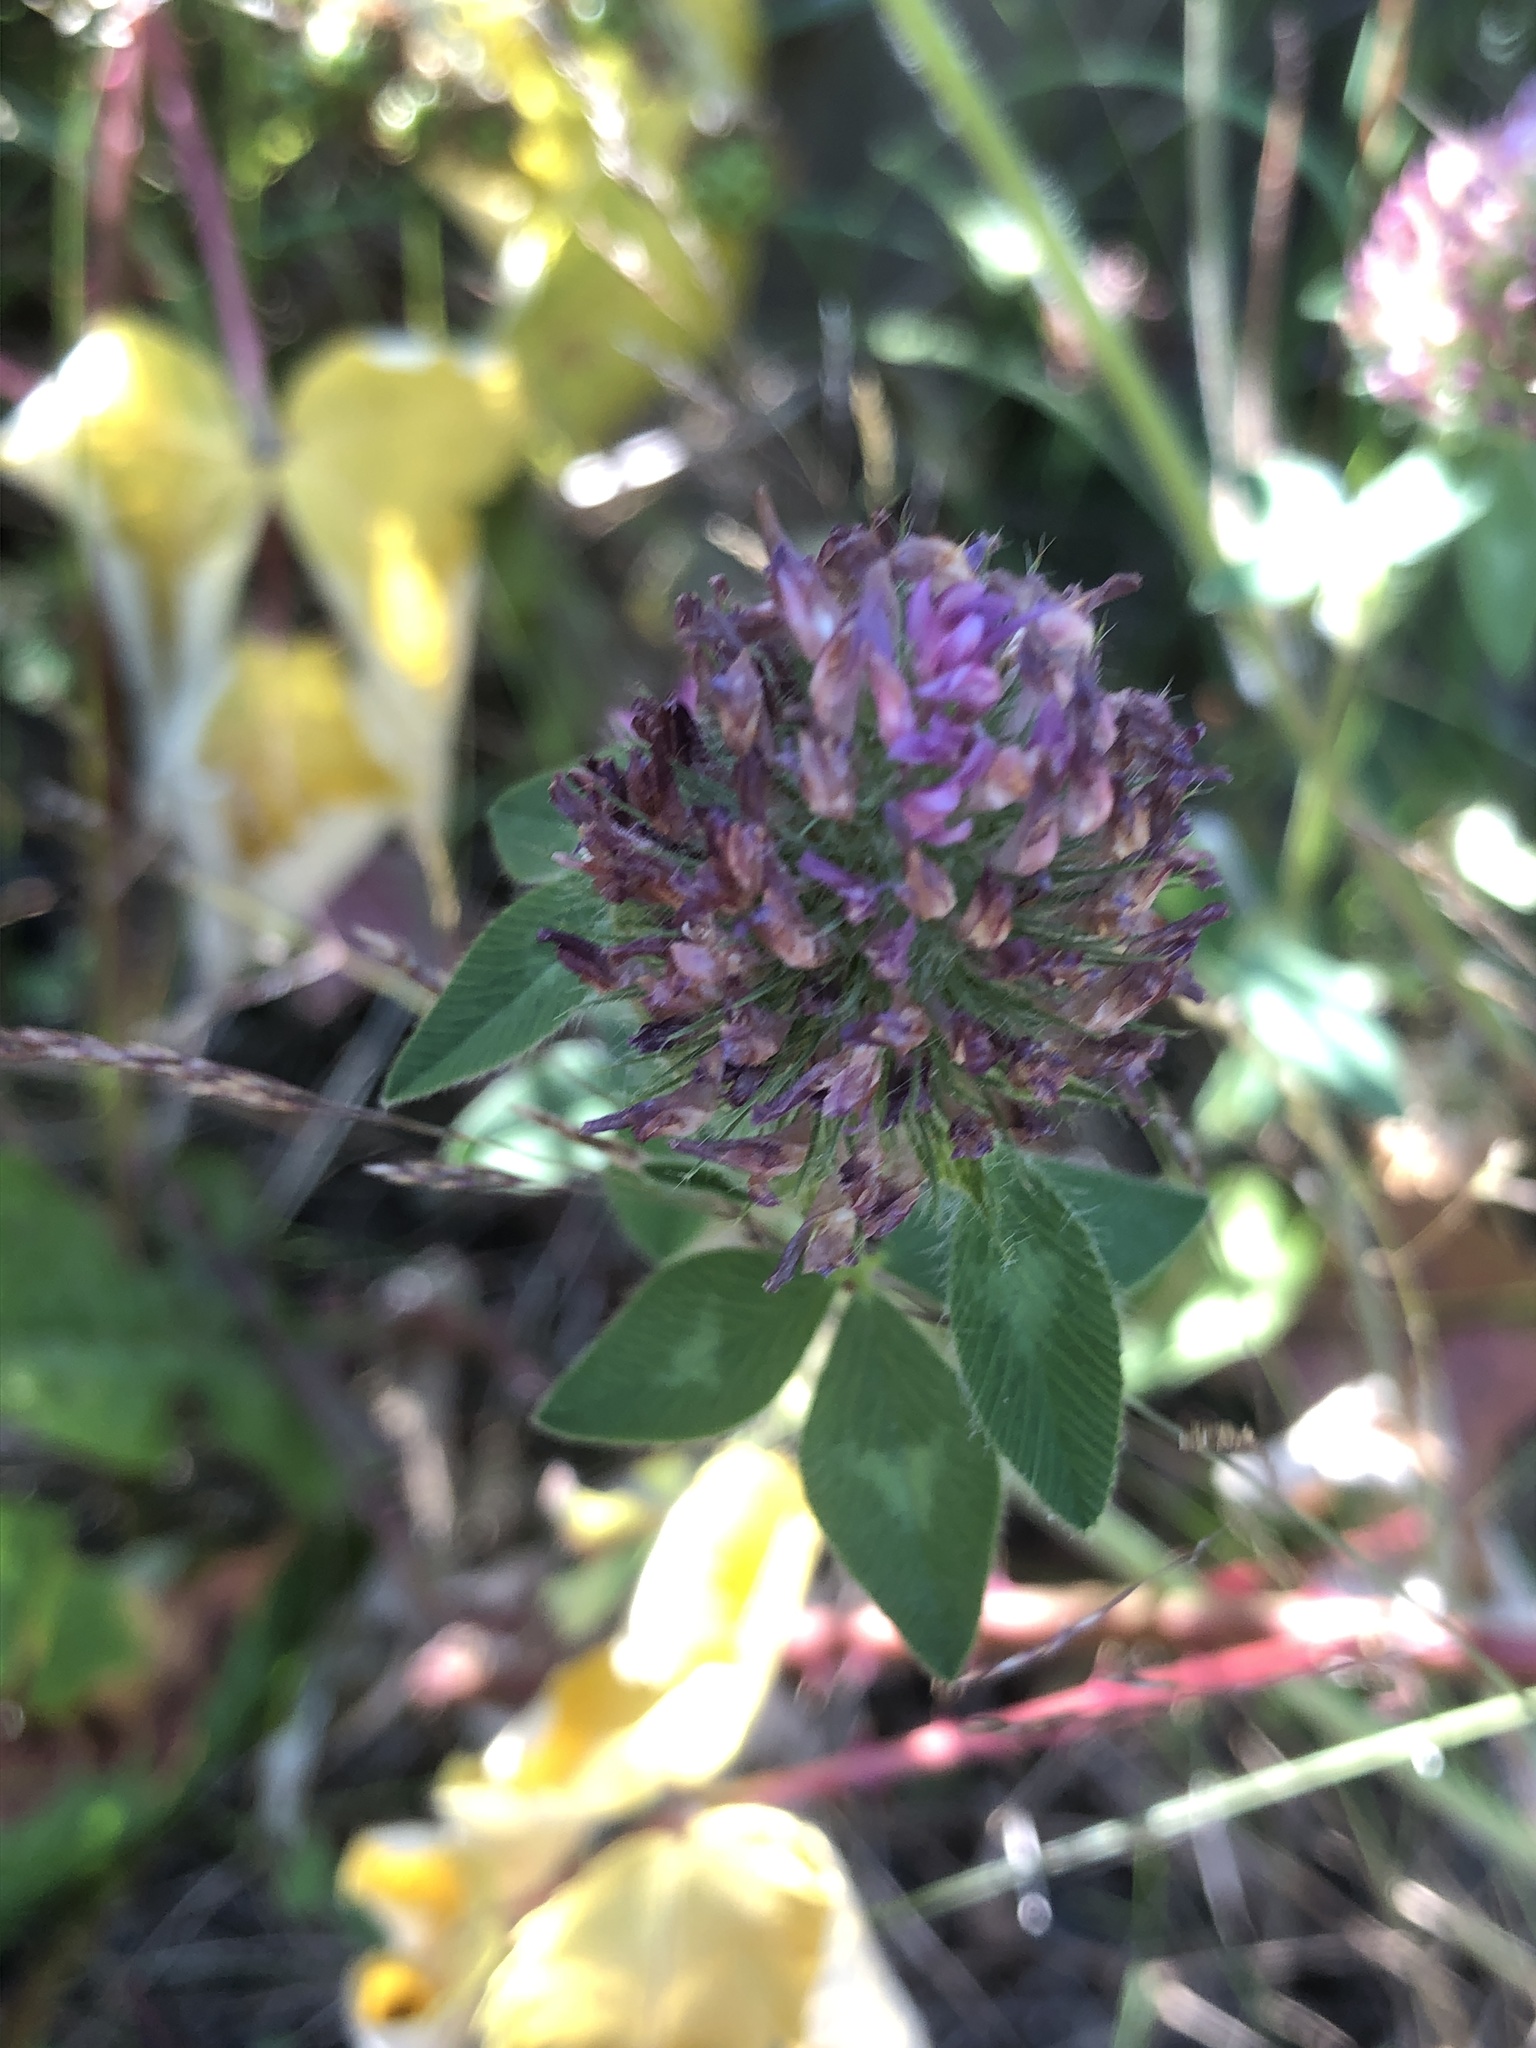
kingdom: Plantae
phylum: Tracheophyta
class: Magnoliopsida
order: Fabales
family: Fabaceae
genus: Trifolium
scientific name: Trifolium pratense
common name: Red clover
